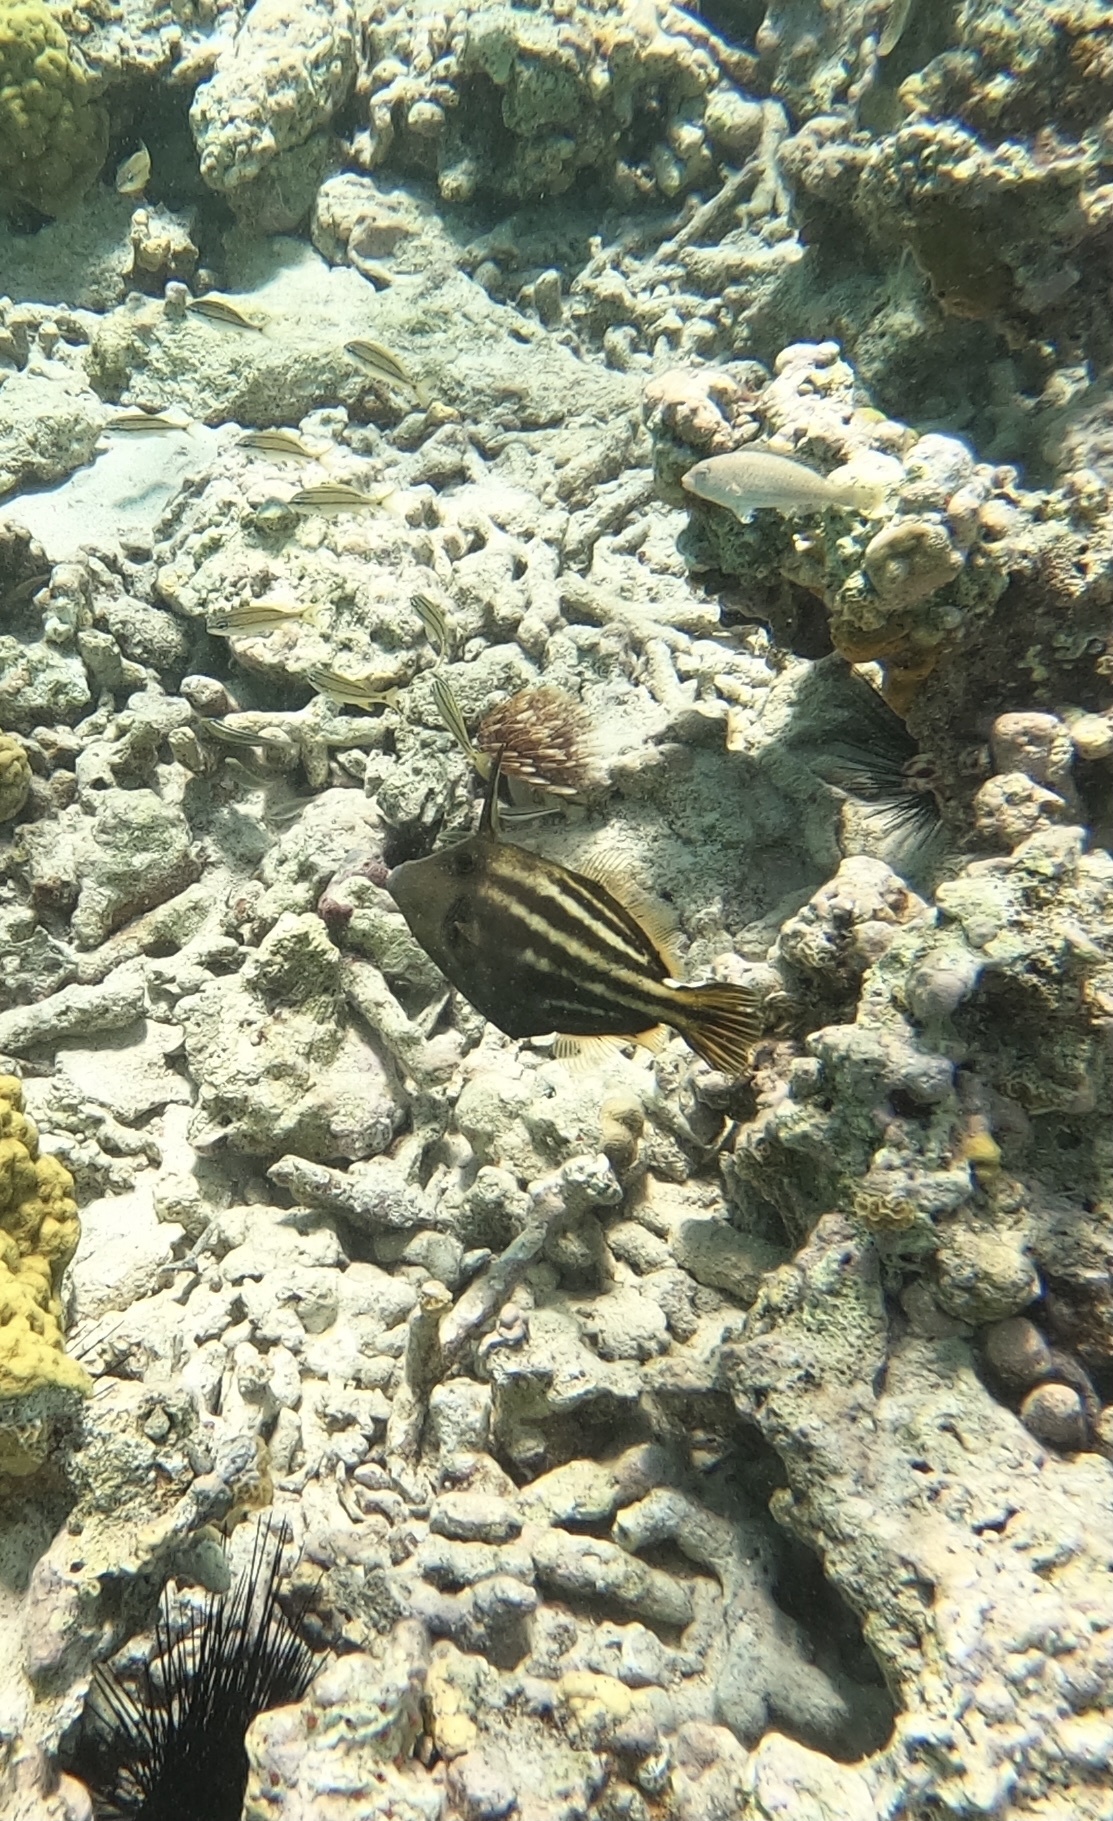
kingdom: Animalia
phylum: Chordata
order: Tetraodontiformes
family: Monacanthidae
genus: Cantherhines
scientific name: Cantherhines pullus
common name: Orangespotted filefish
